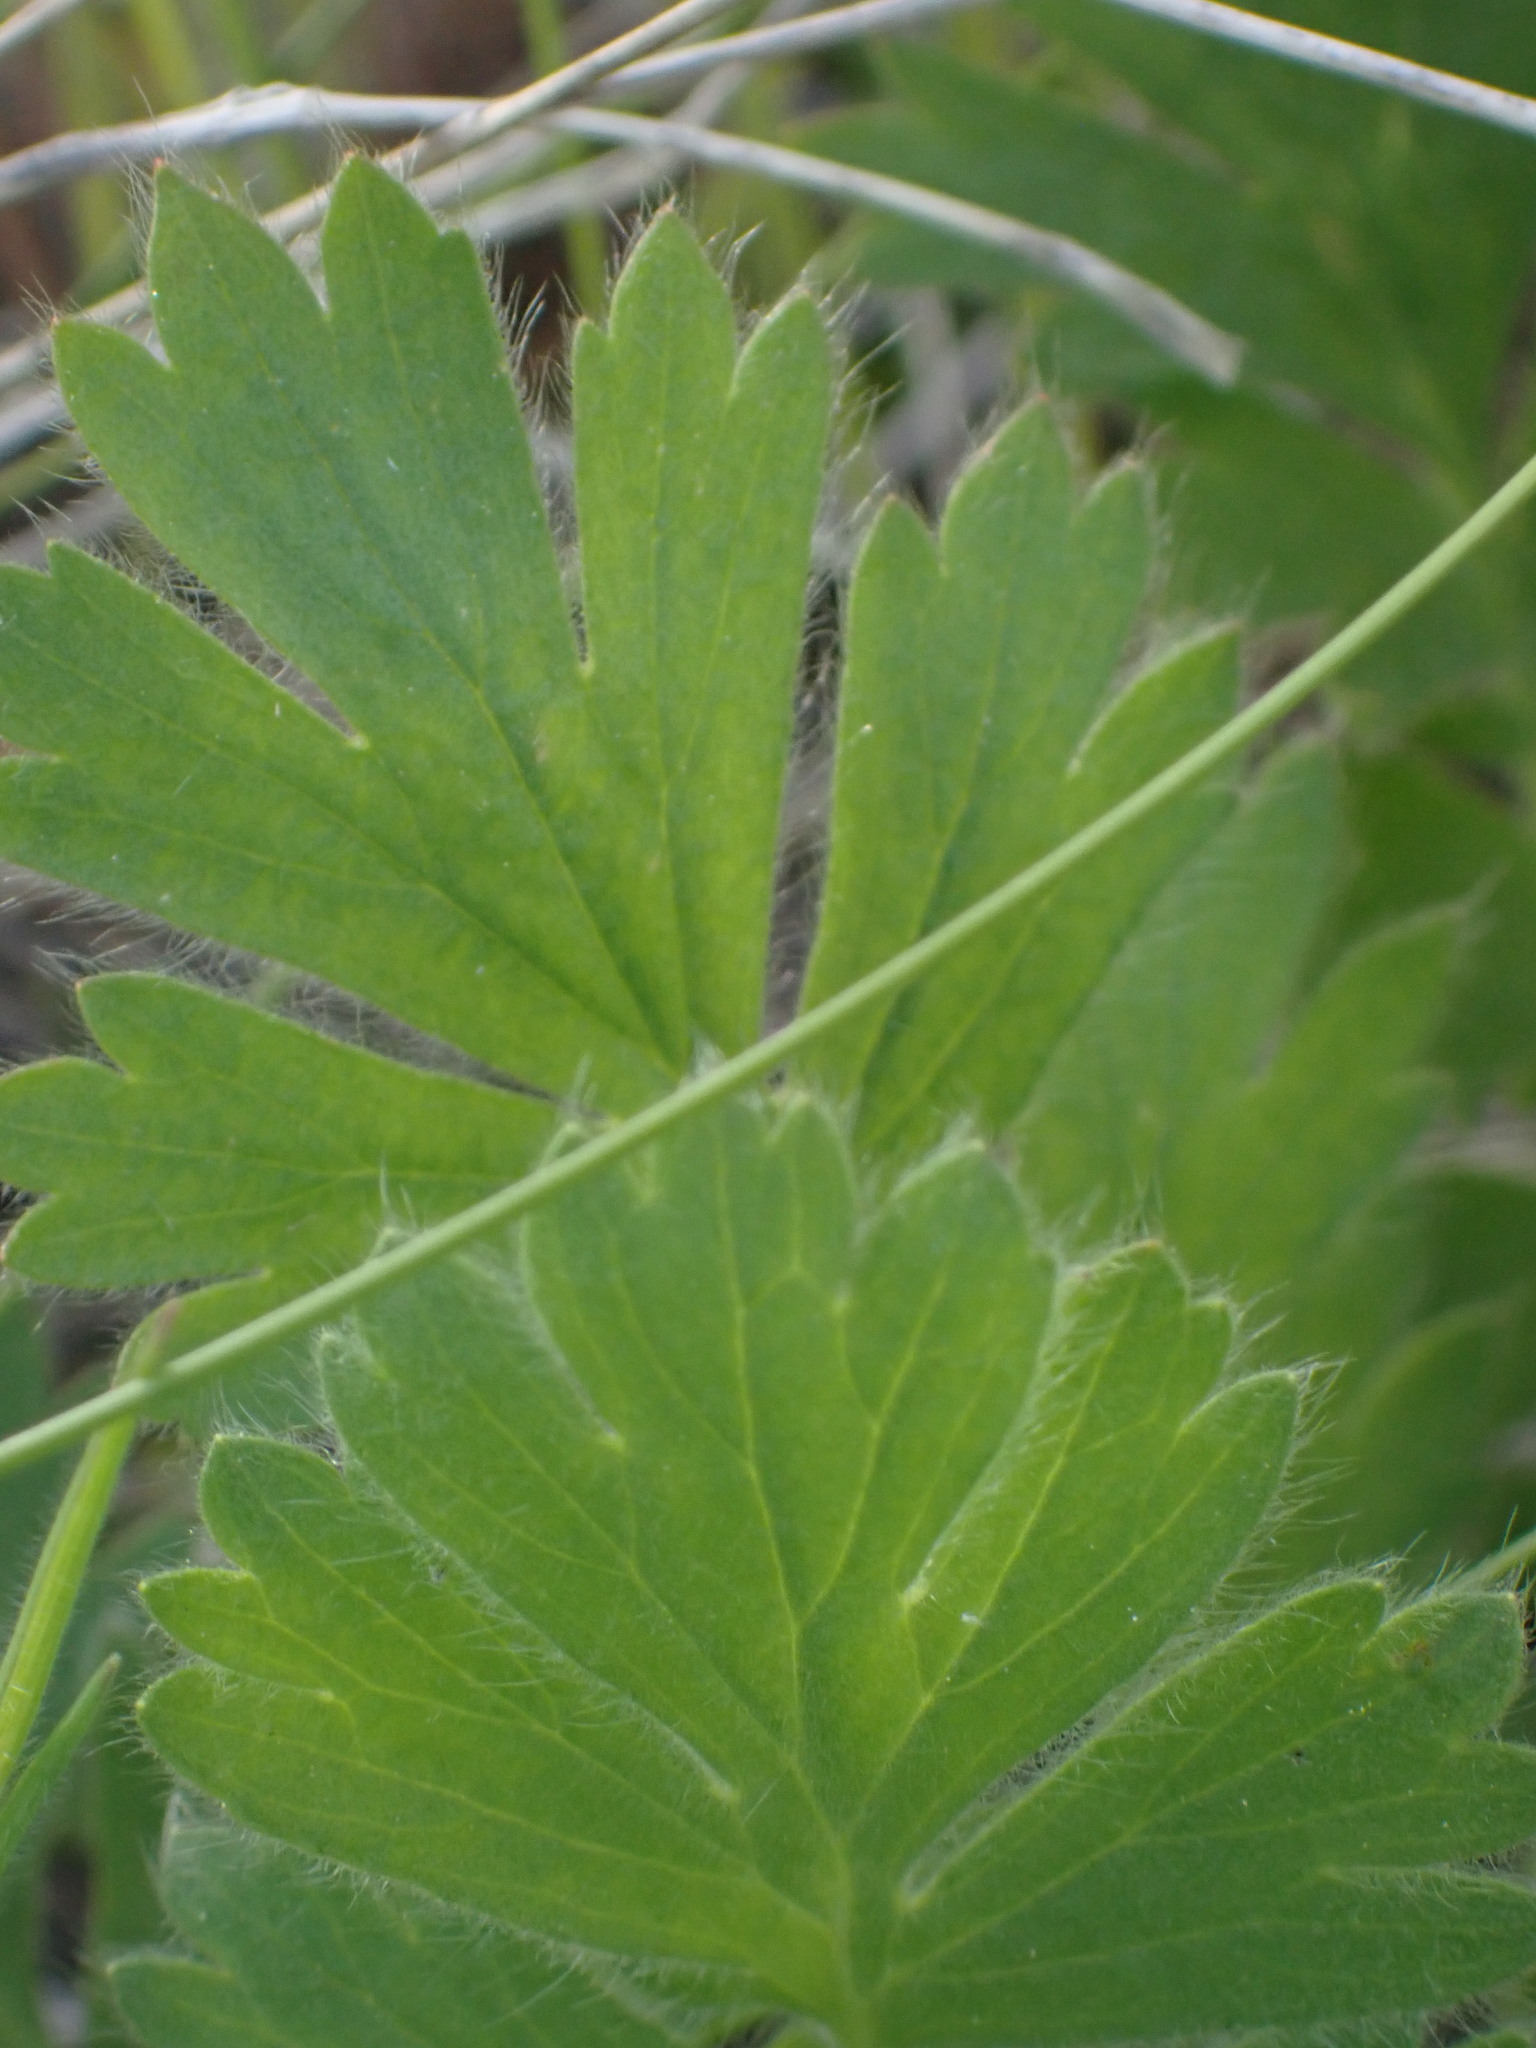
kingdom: Plantae
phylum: Tracheophyta
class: Magnoliopsida
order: Rosales
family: Rosaceae
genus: Geum
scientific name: Geum triflorum
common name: Old man's whiskers
